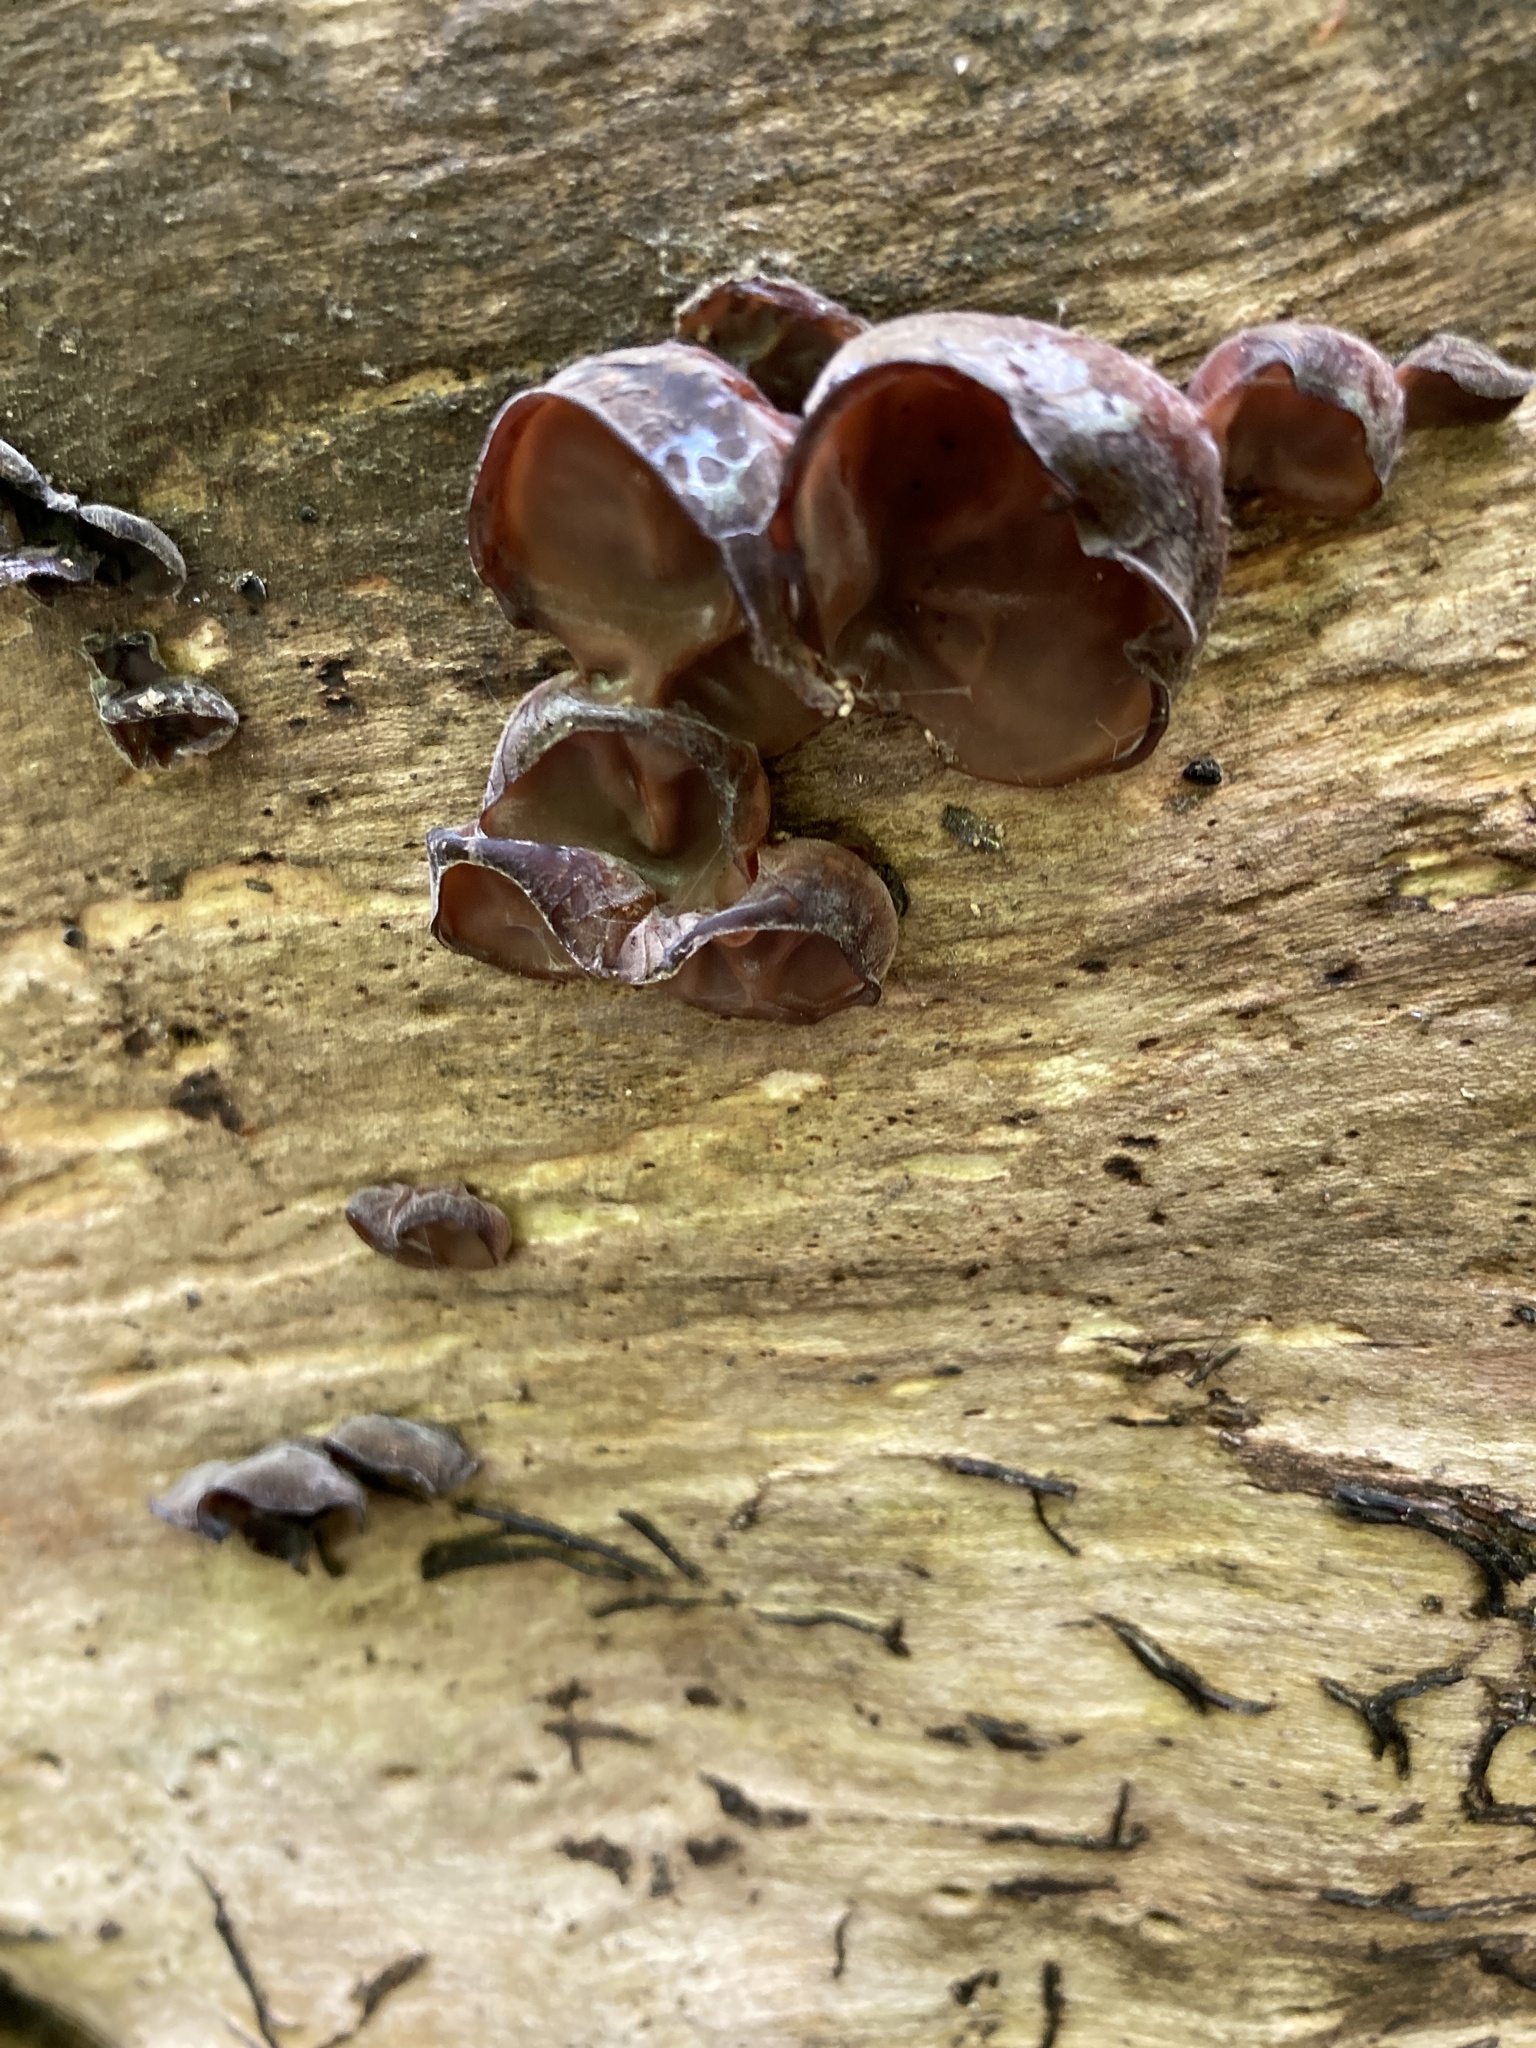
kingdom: Fungi
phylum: Basidiomycota
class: Agaricomycetes
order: Auriculariales
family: Auriculariaceae
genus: Auricularia
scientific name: Auricularia auricula-judae
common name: Jelly ear
